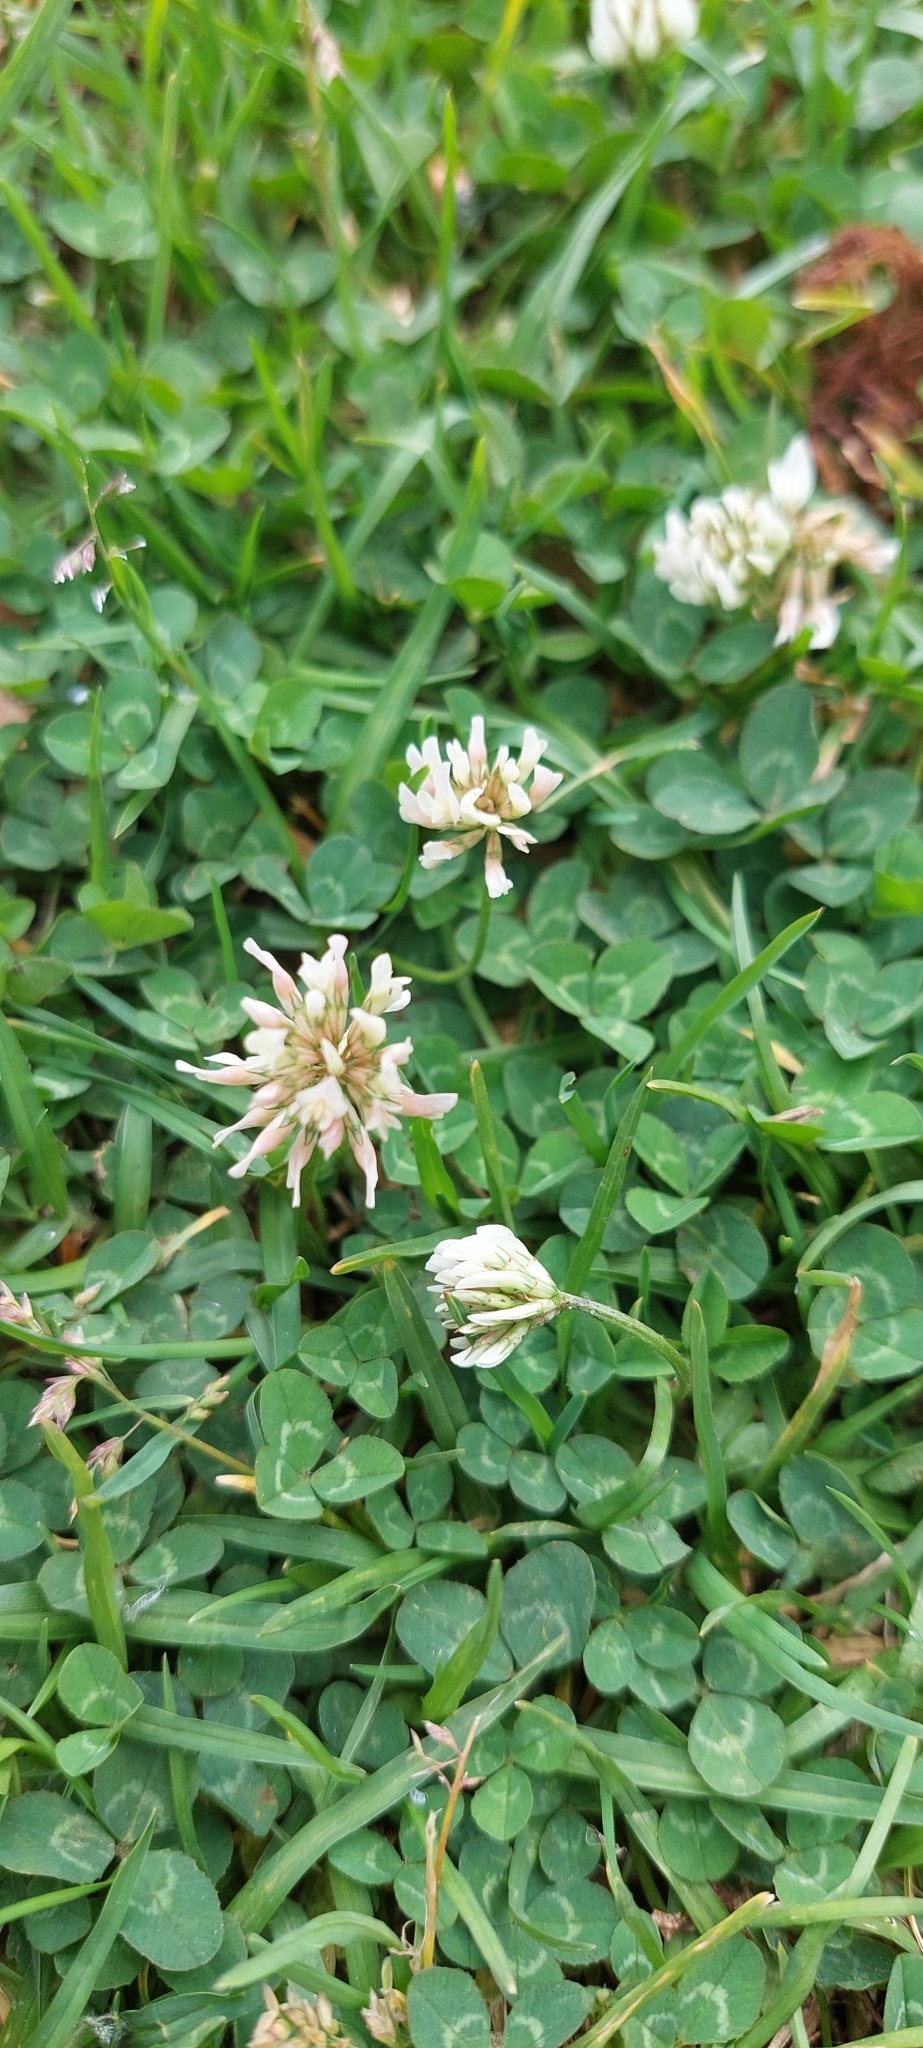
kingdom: Plantae
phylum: Tracheophyta
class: Magnoliopsida
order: Fabales
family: Fabaceae
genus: Trifolium
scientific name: Trifolium repens
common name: White clover
